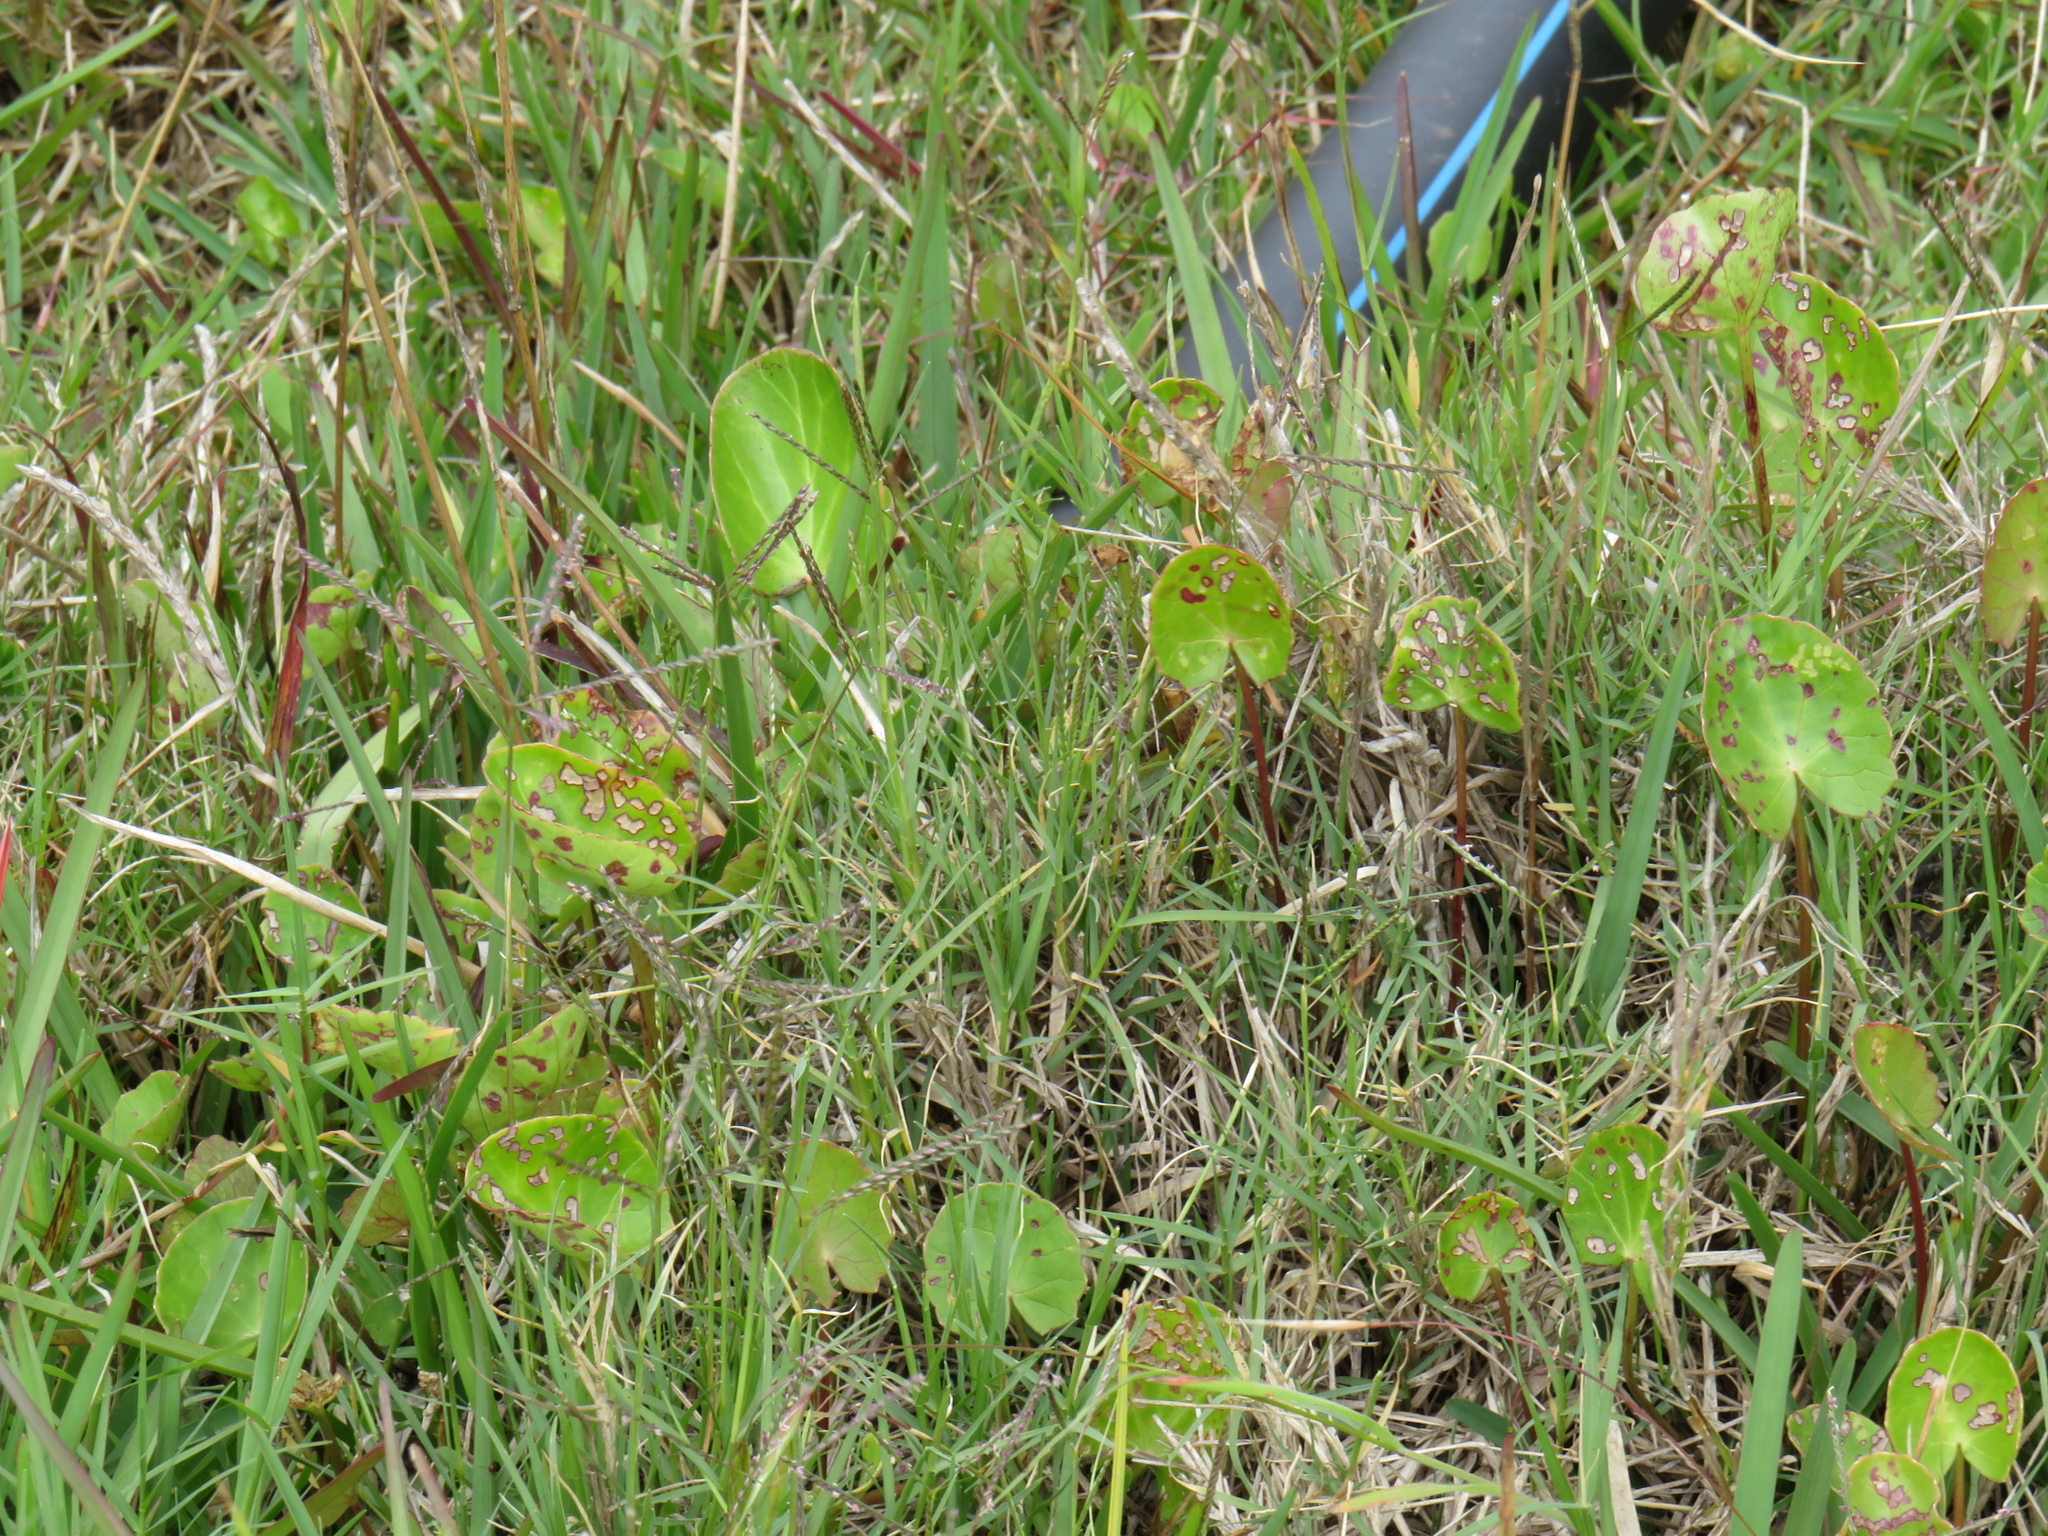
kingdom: Plantae
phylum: Tracheophyta
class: Magnoliopsida
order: Apiales
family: Apiaceae
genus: Centella
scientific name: Centella asiatica
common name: Spadeleaf
